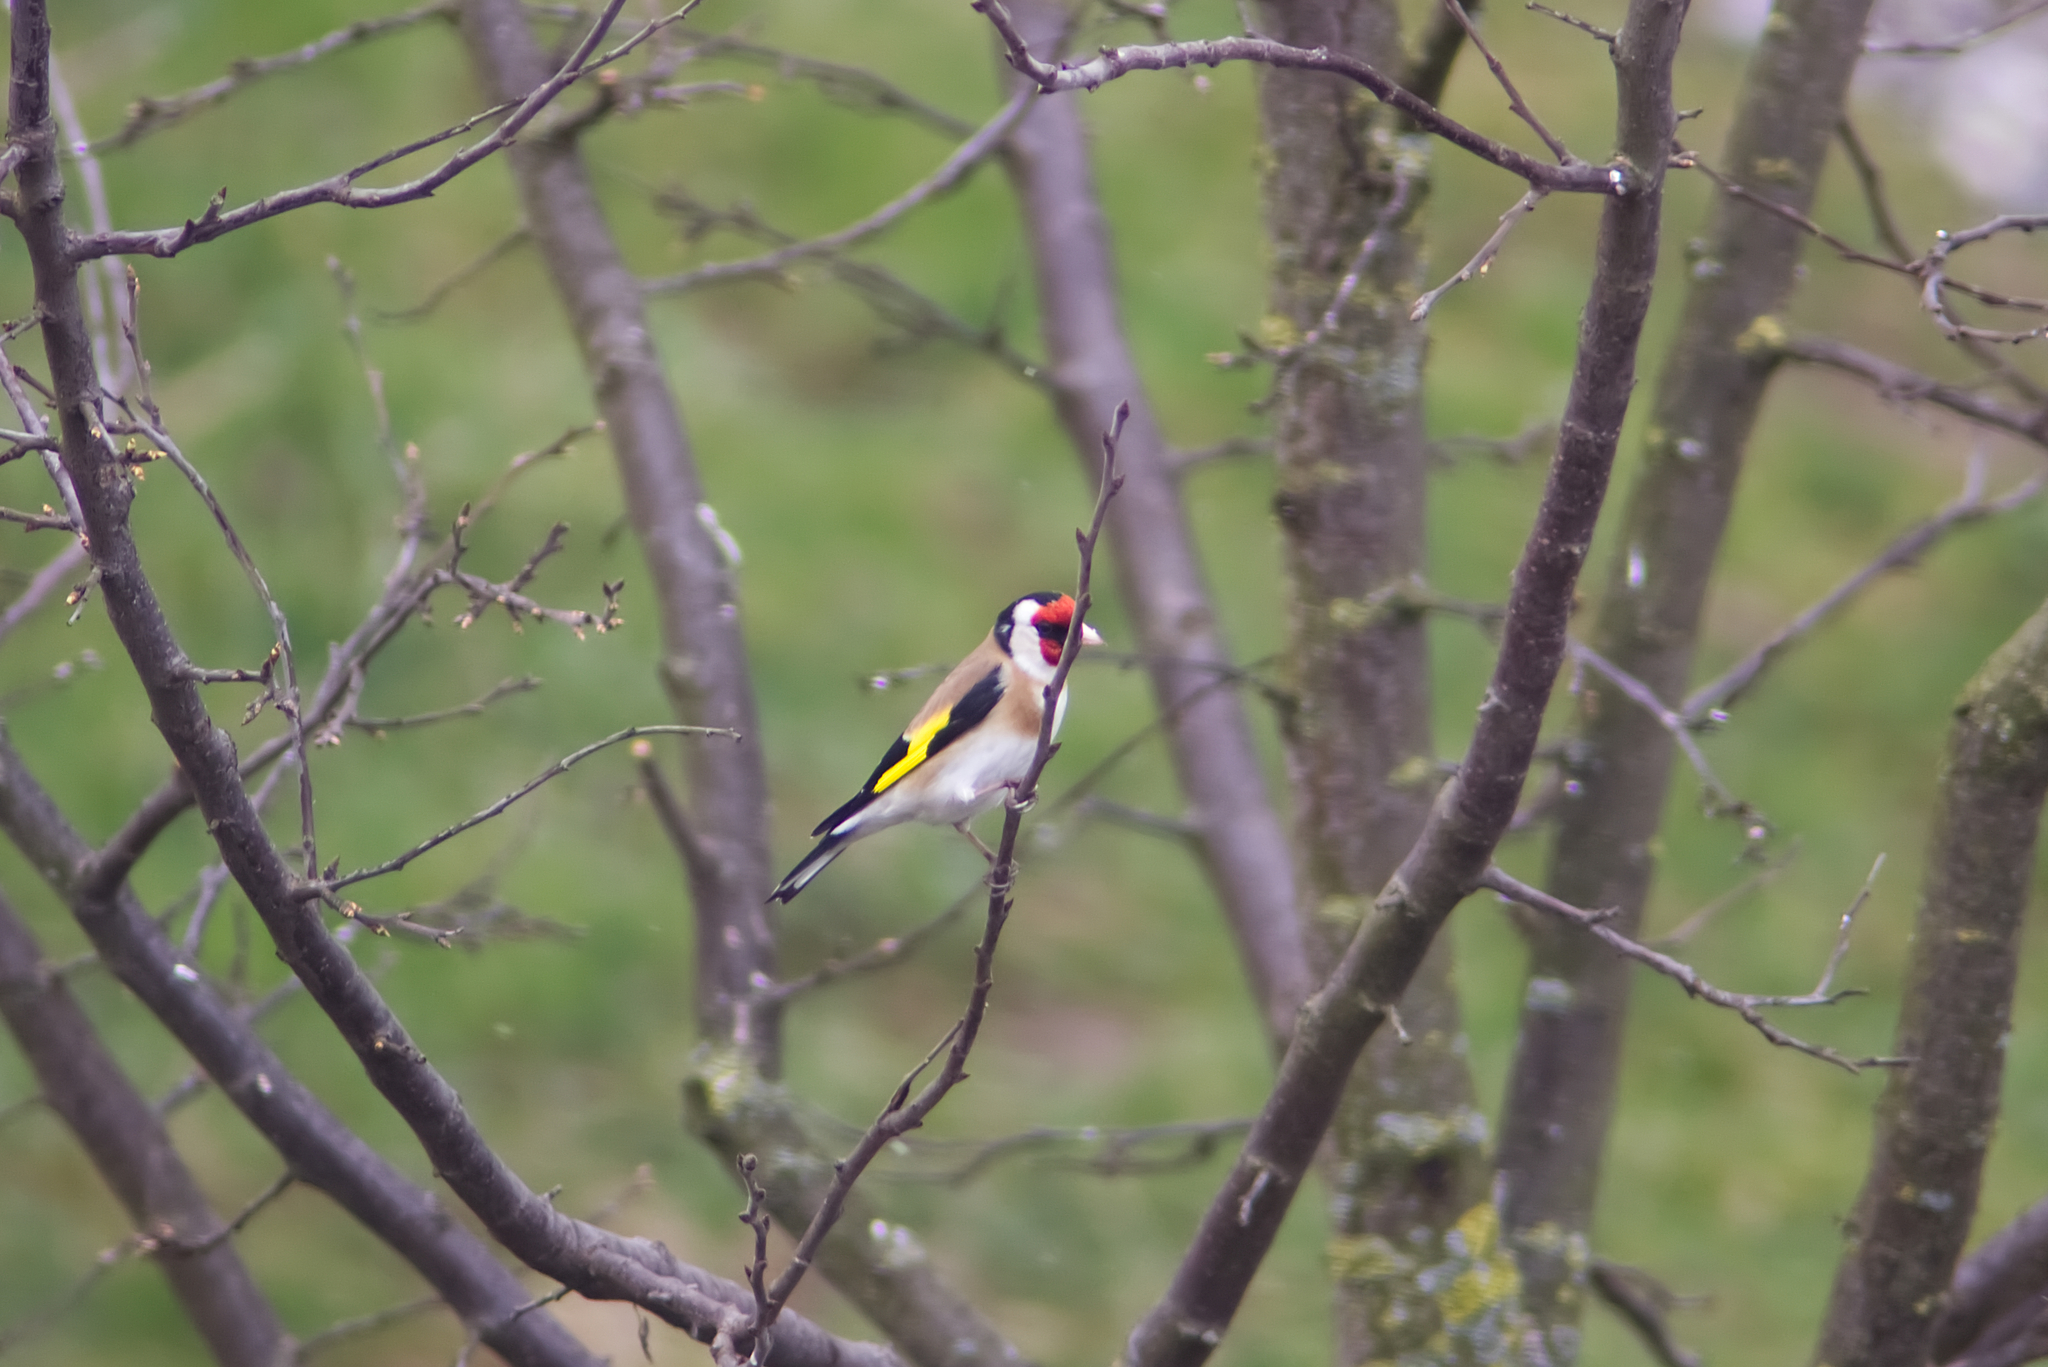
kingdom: Animalia
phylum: Chordata
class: Aves
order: Passeriformes
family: Fringillidae
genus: Carduelis
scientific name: Carduelis carduelis
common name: European goldfinch
